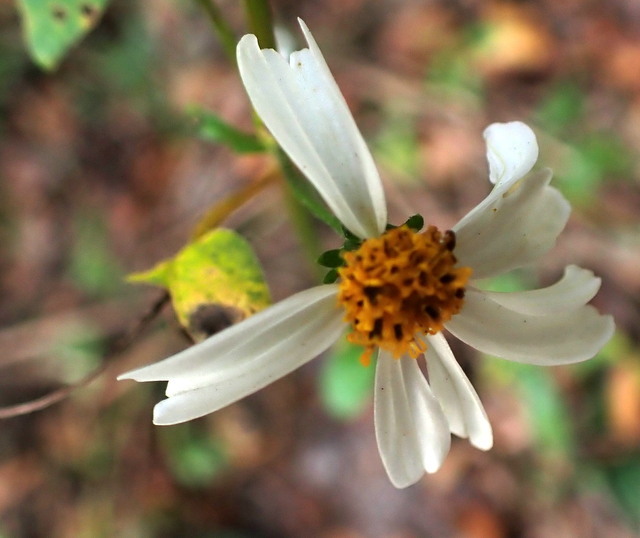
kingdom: Plantae
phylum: Tracheophyta
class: Magnoliopsida
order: Asterales
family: Asteraceae
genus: Bidens
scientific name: Bidens alba
